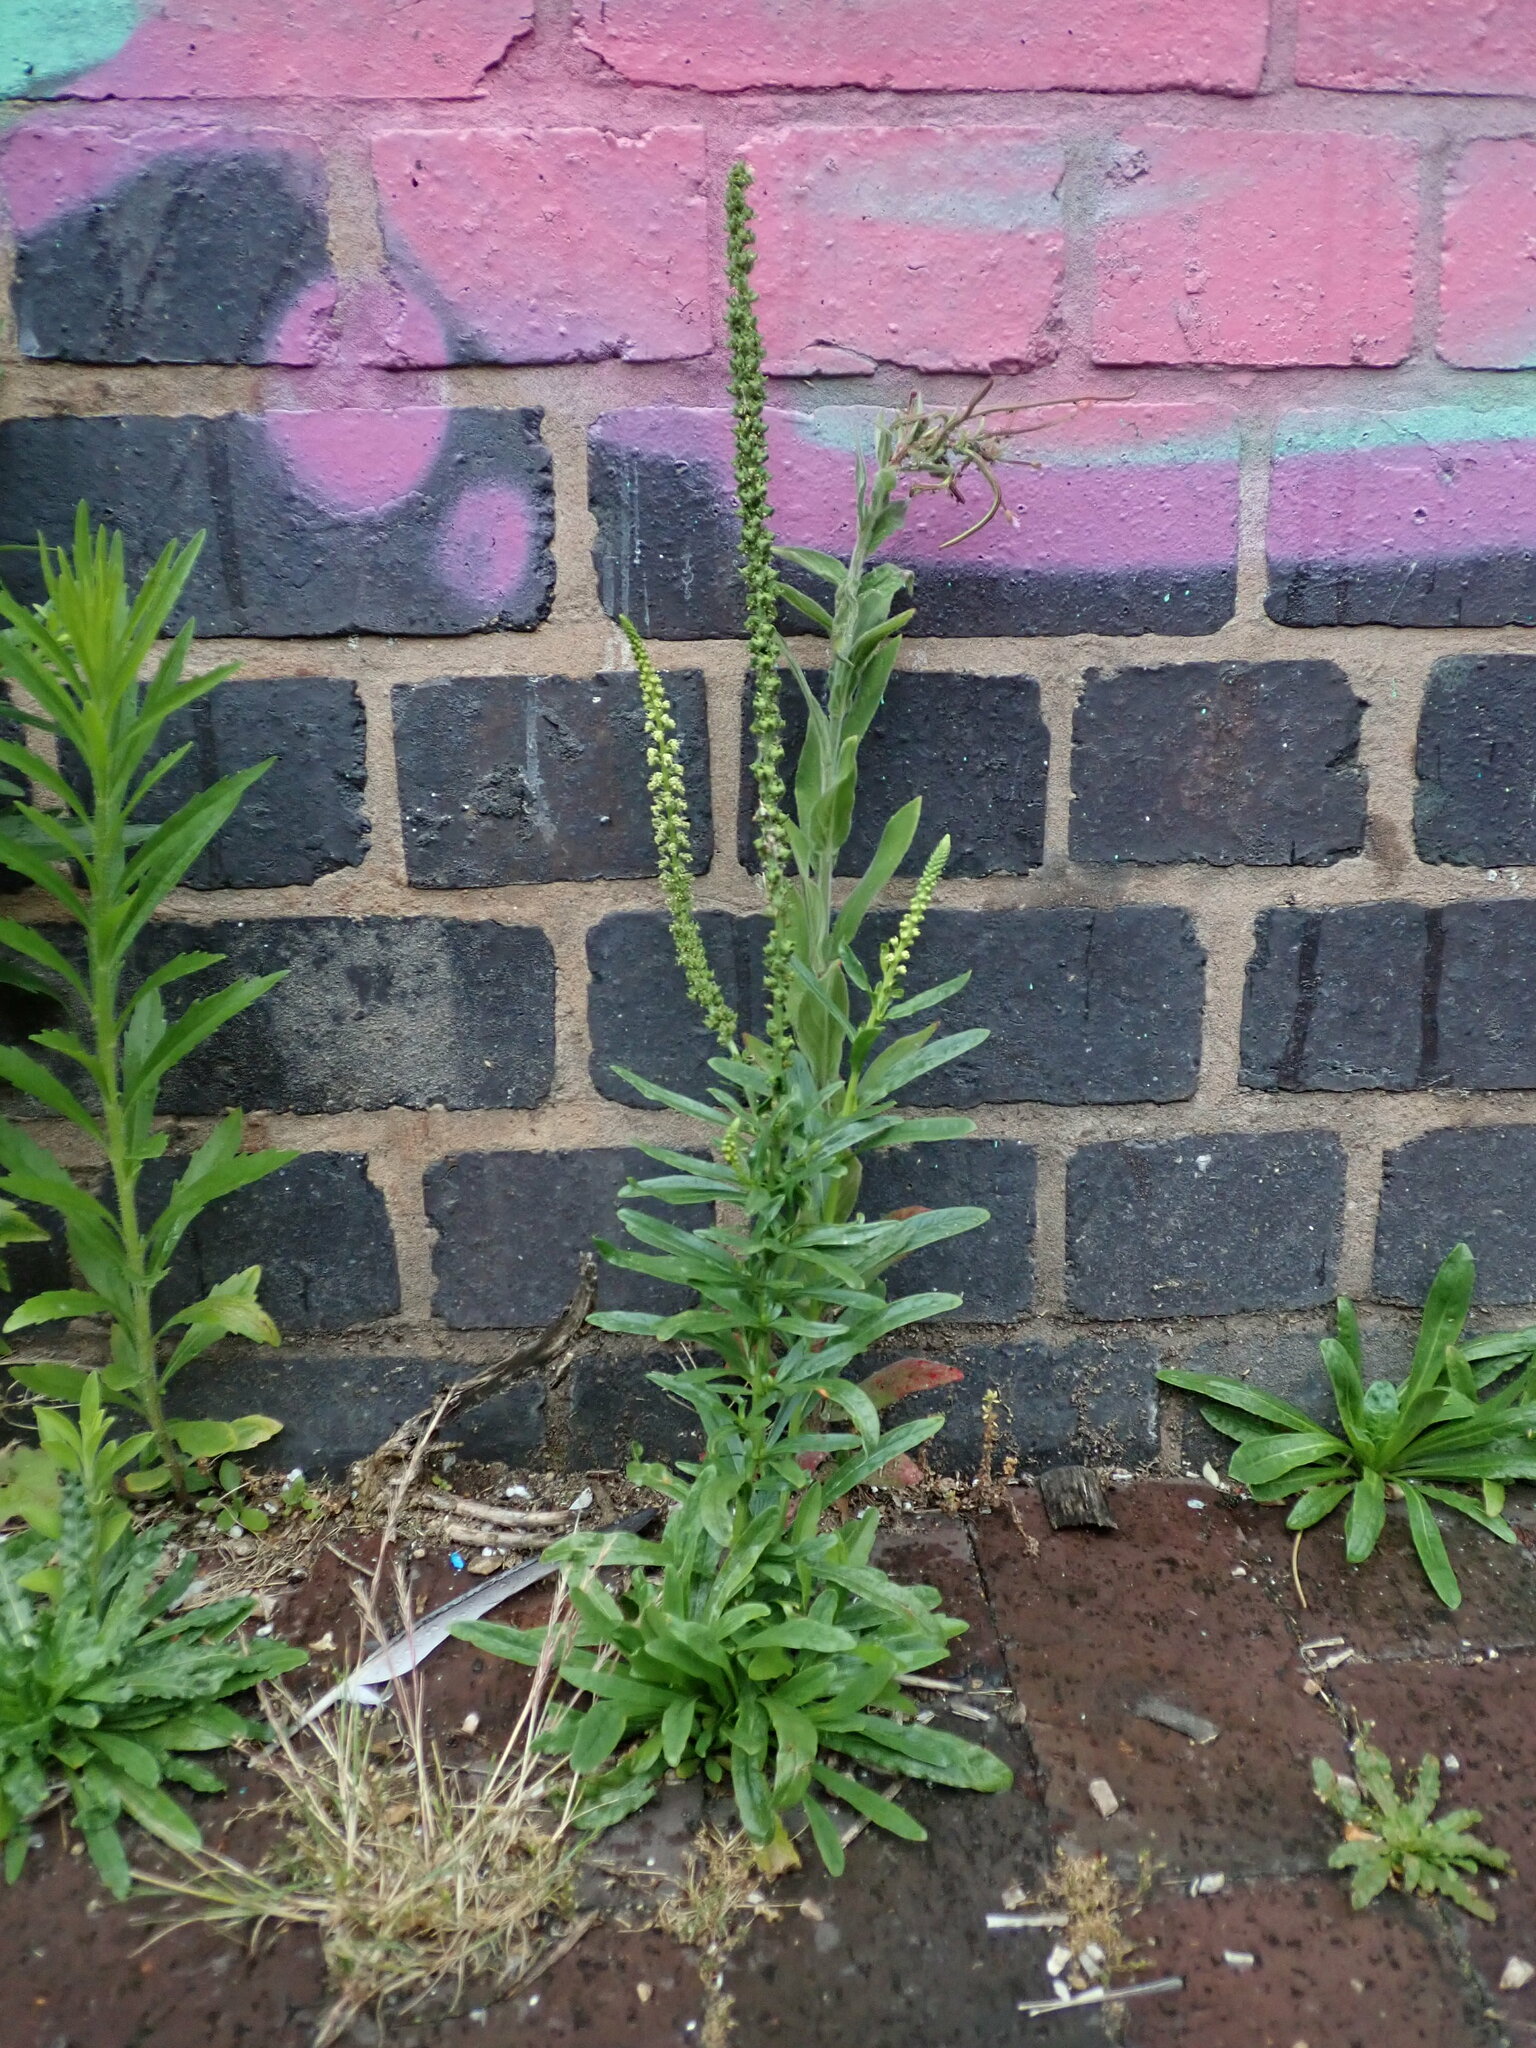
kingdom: Plantae
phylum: Tracheophyta
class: Magnoliopsida
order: Brassicales
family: Resedaceae
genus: Reseda
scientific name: Reseda luteola
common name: Weld
